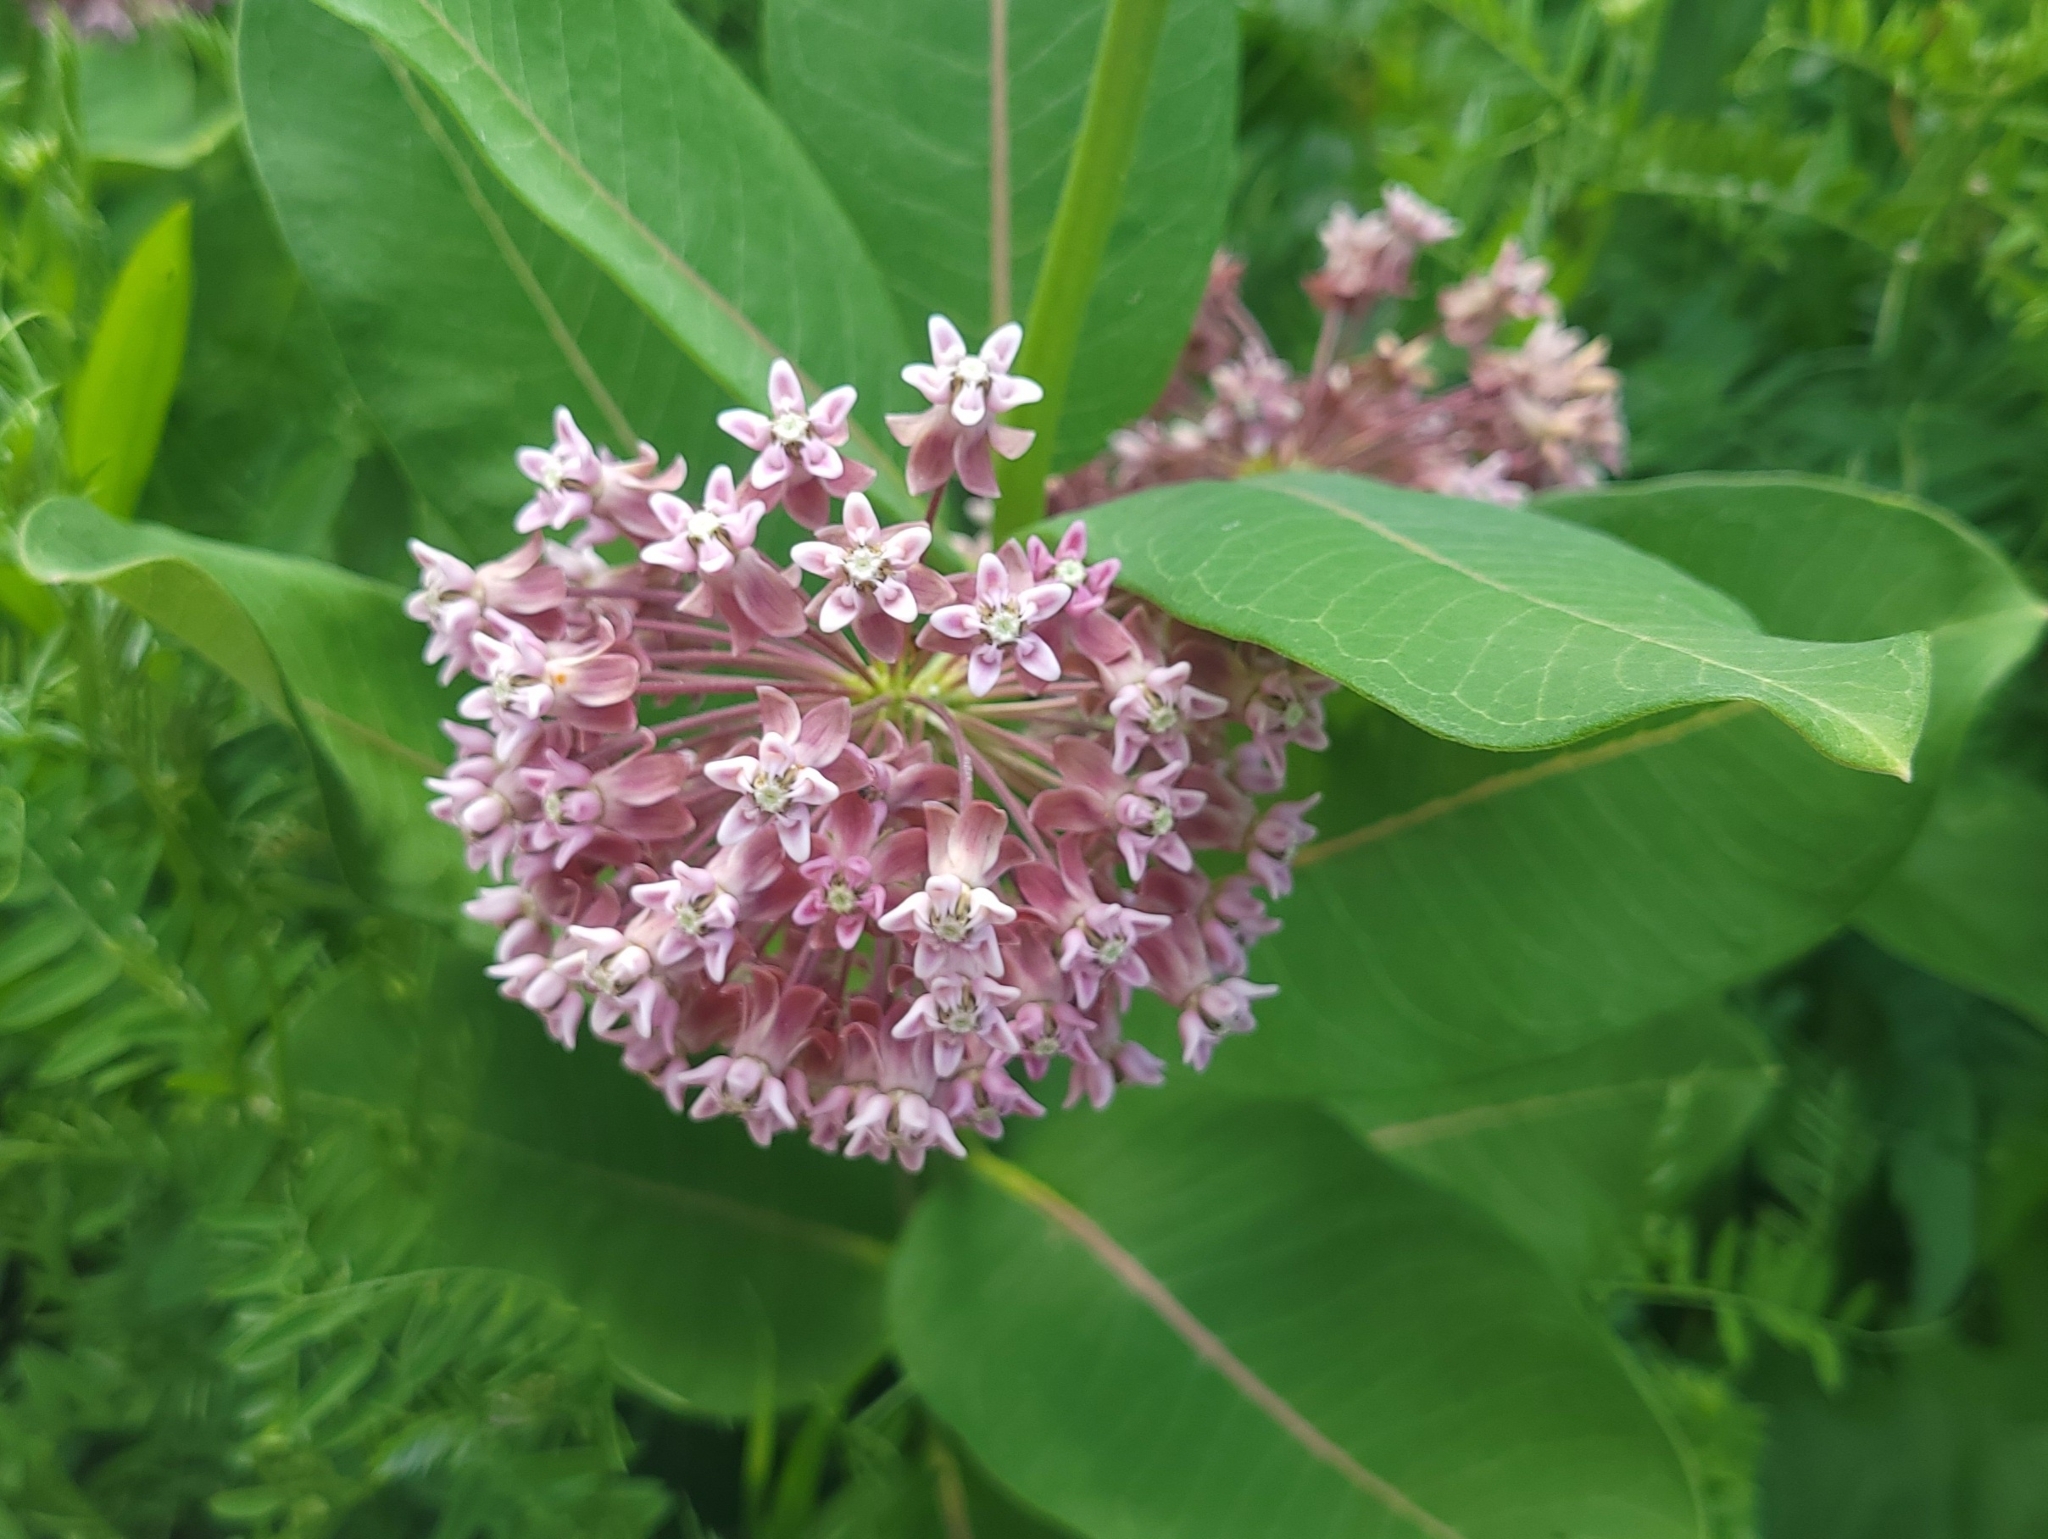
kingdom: Plantae
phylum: Tracheophyta
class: Magnoliopsida
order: Gentianales
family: Apocynaceae
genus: Asclepias
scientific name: Asclepias syriaca
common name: Common milkweed
